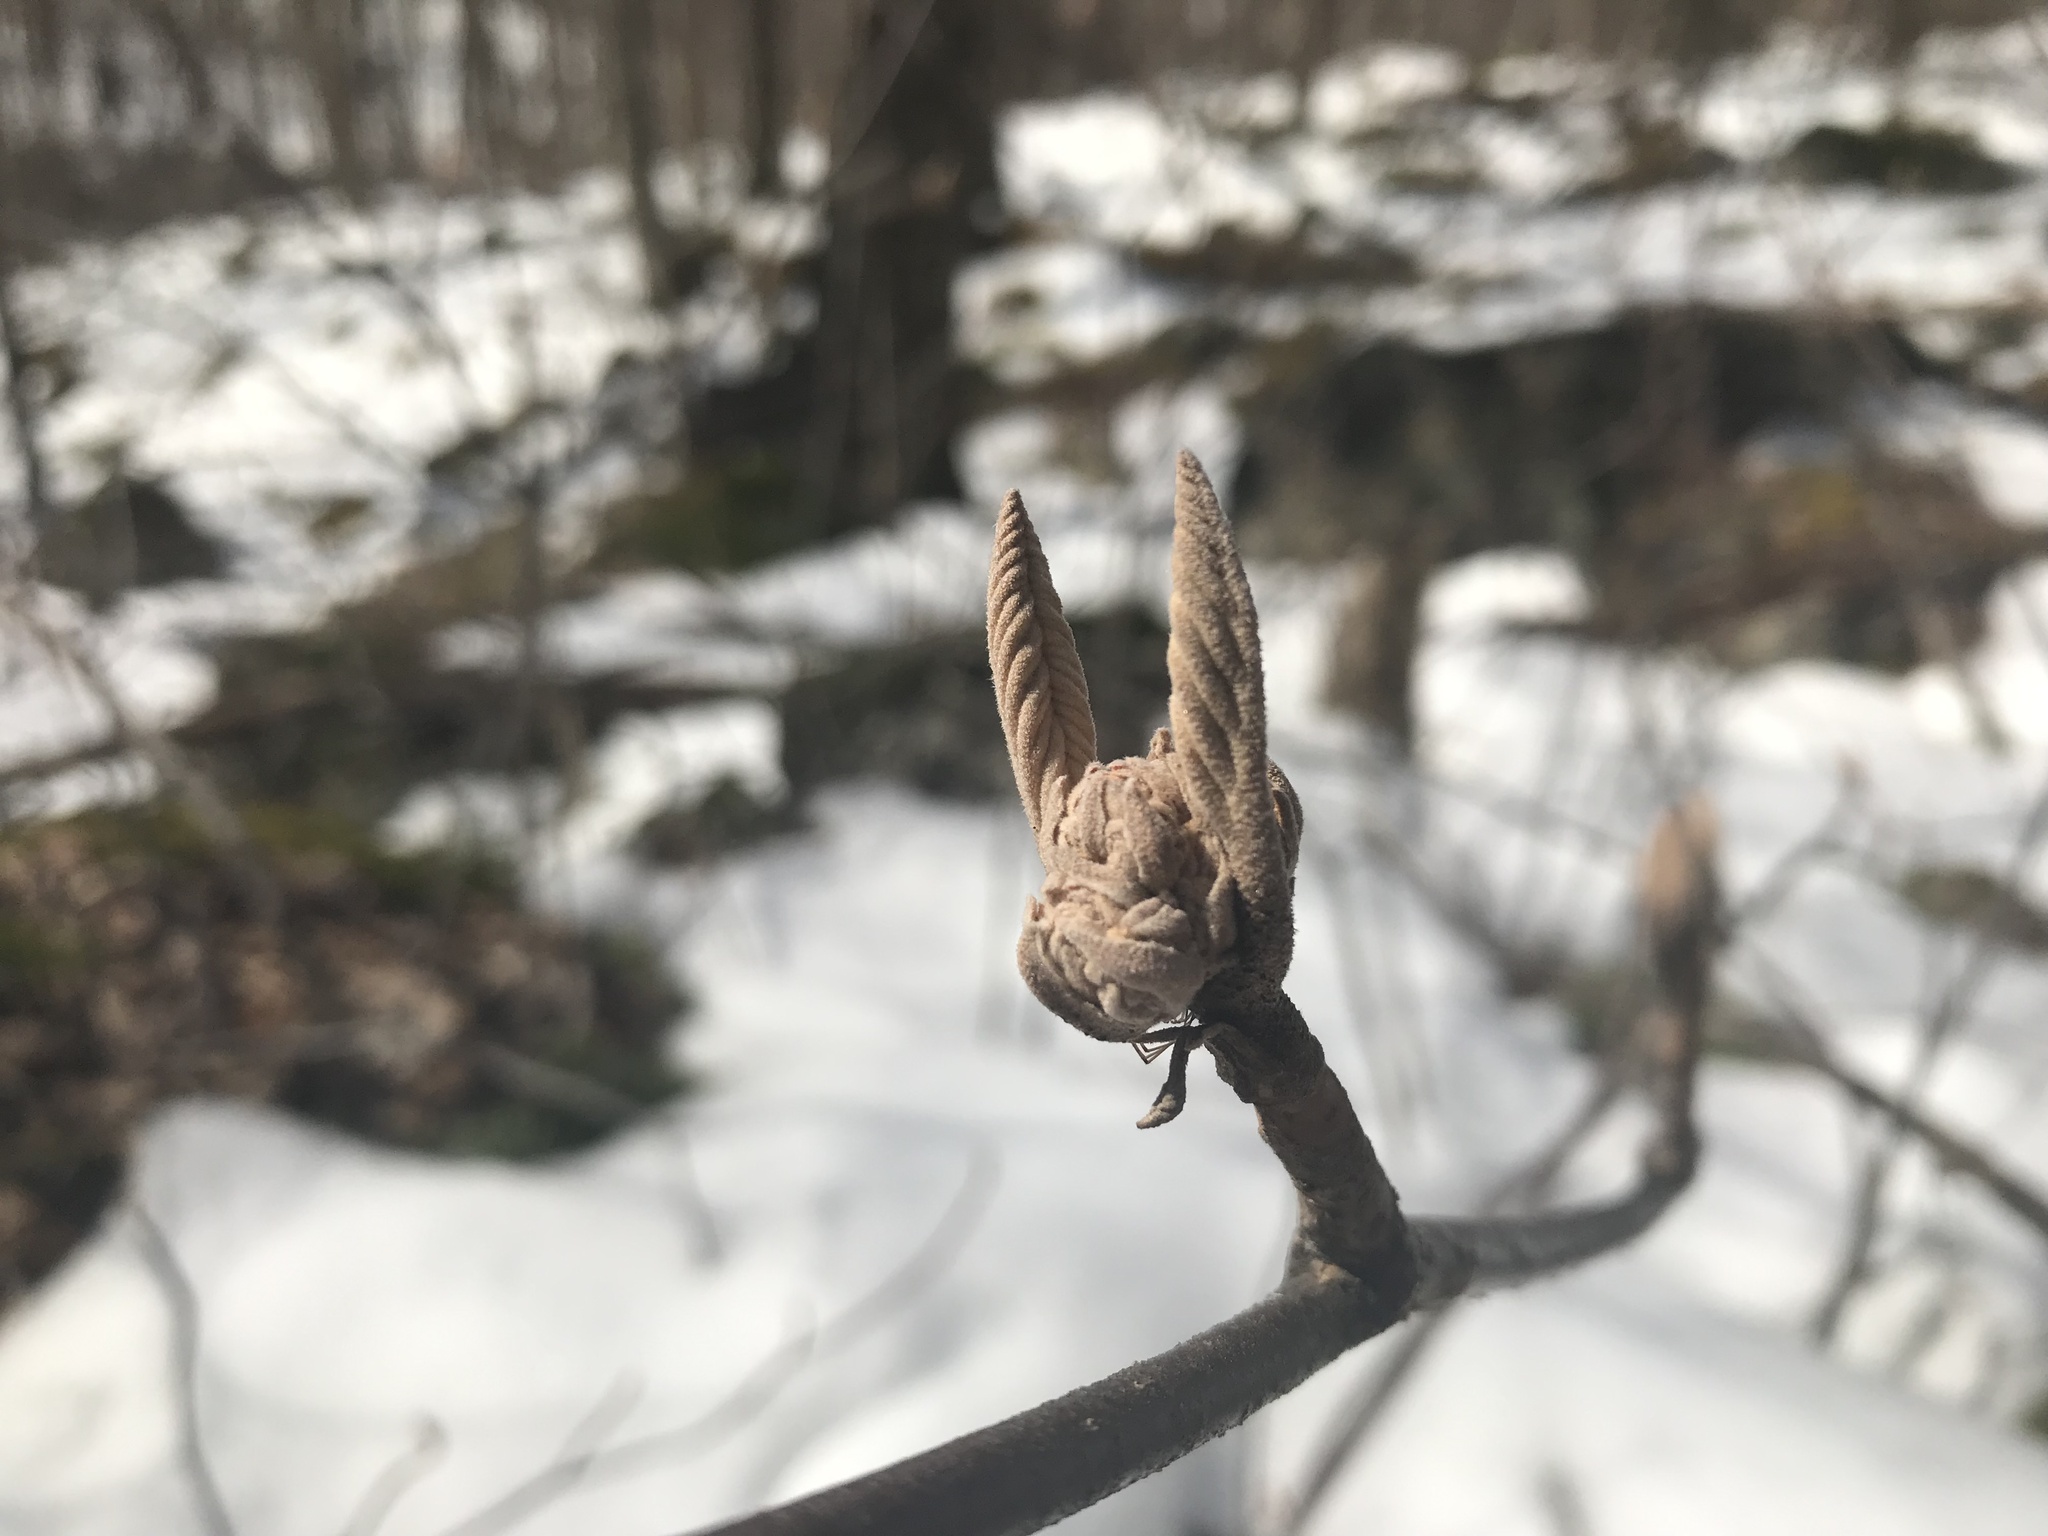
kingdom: Plantae
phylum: Tracheophyta
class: Magnoliopsida
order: Dipsacales
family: Viburnaceae
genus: Viburnum
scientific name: Viburnum lantanoides
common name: Hobblebush
